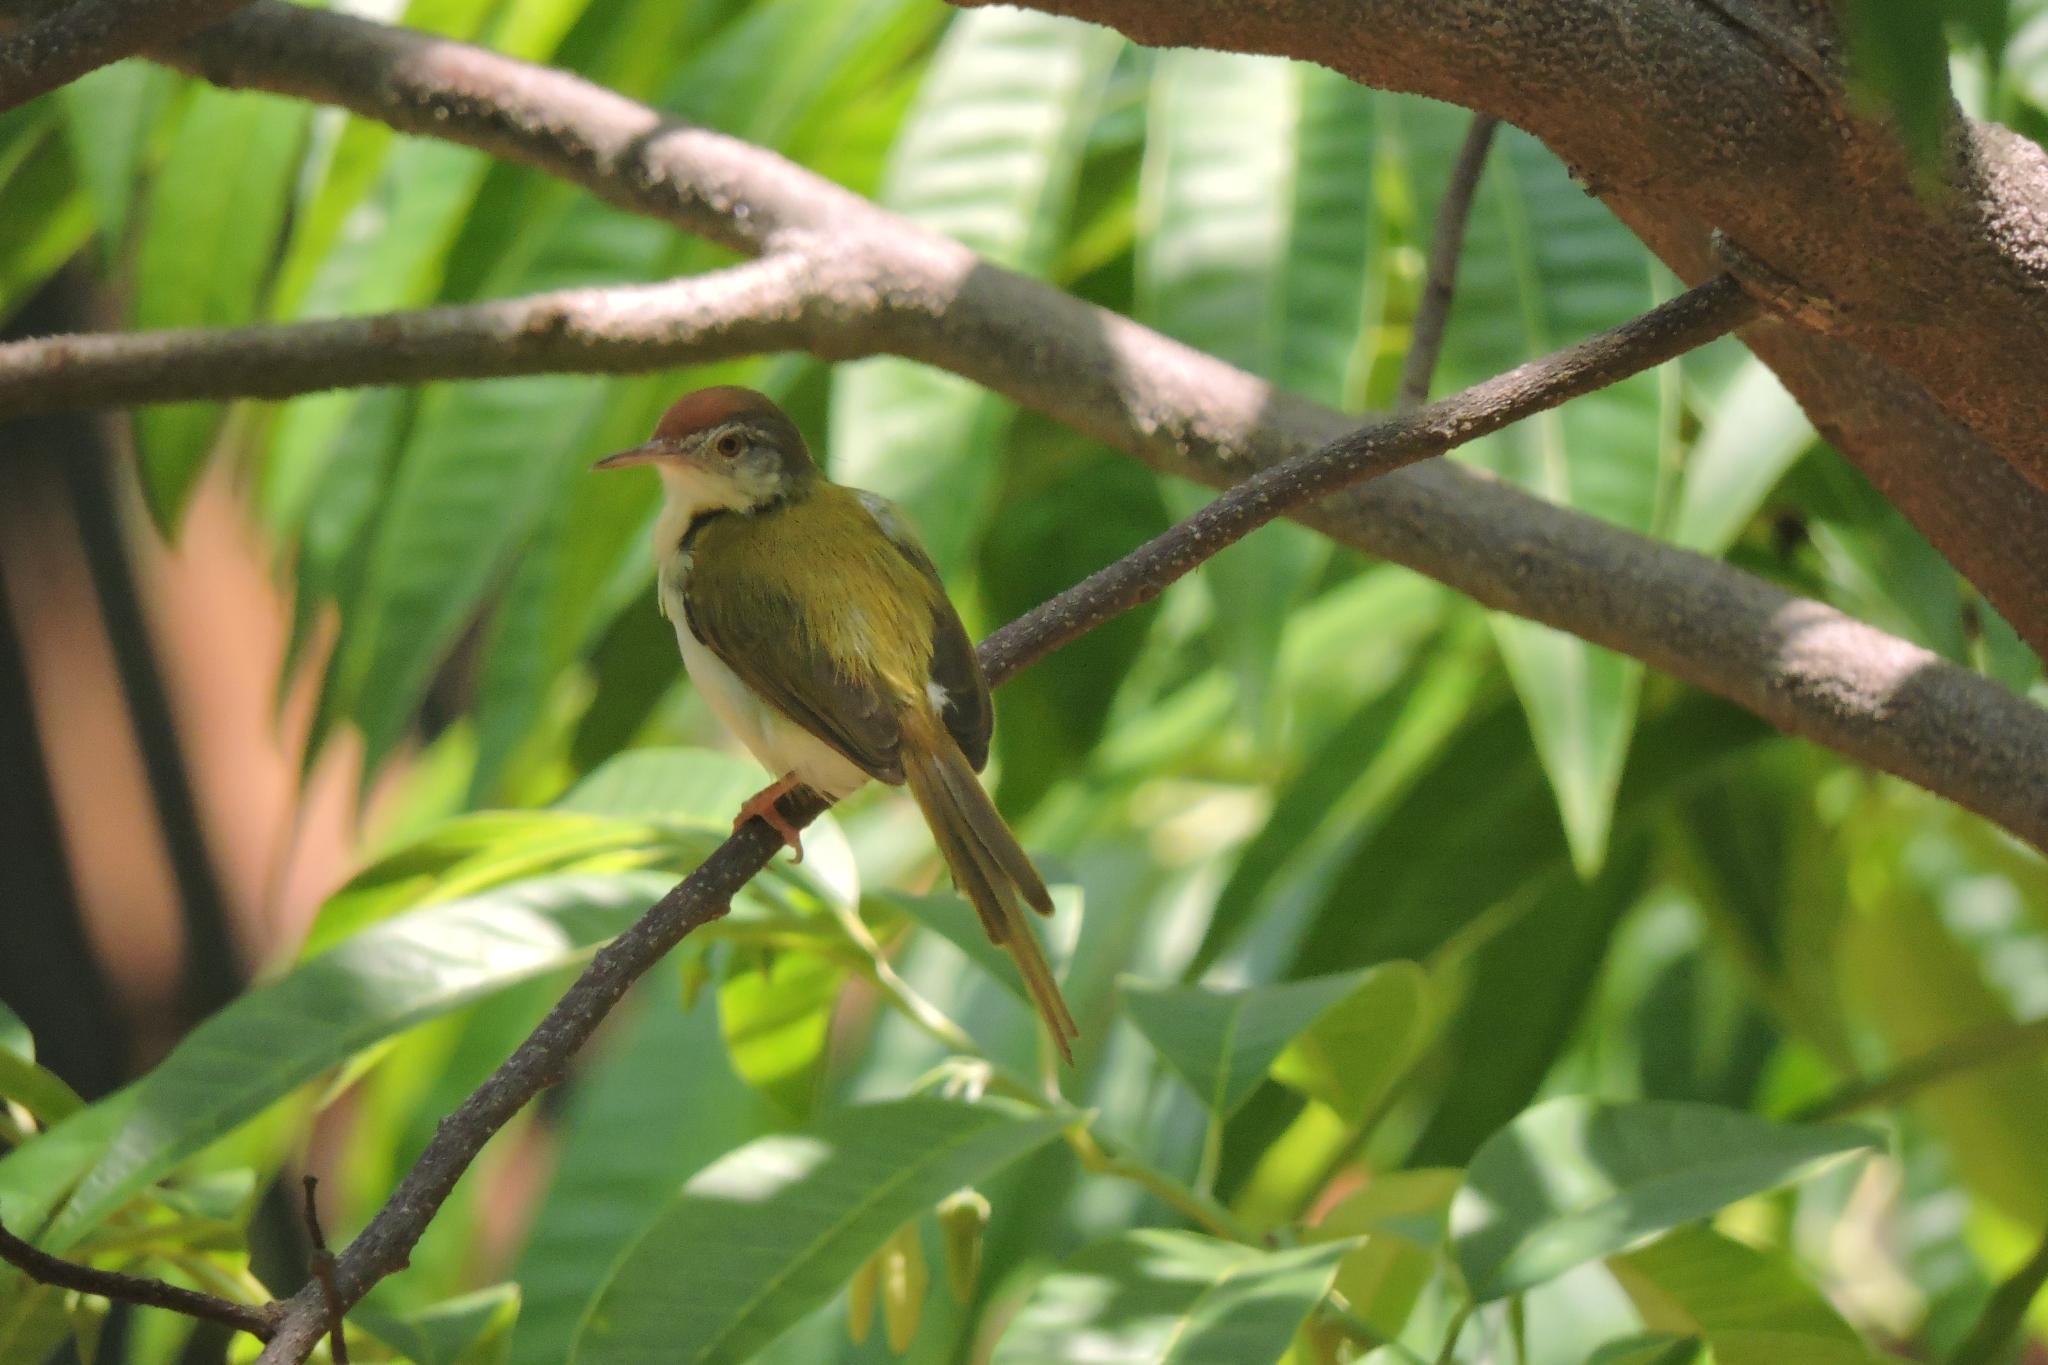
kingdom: Animalia
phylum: Chordata
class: Aves
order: Passeriformes
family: Cisticolidae
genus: Orthotomus
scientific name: Orthotomus sutorius
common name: Common tailorbird
